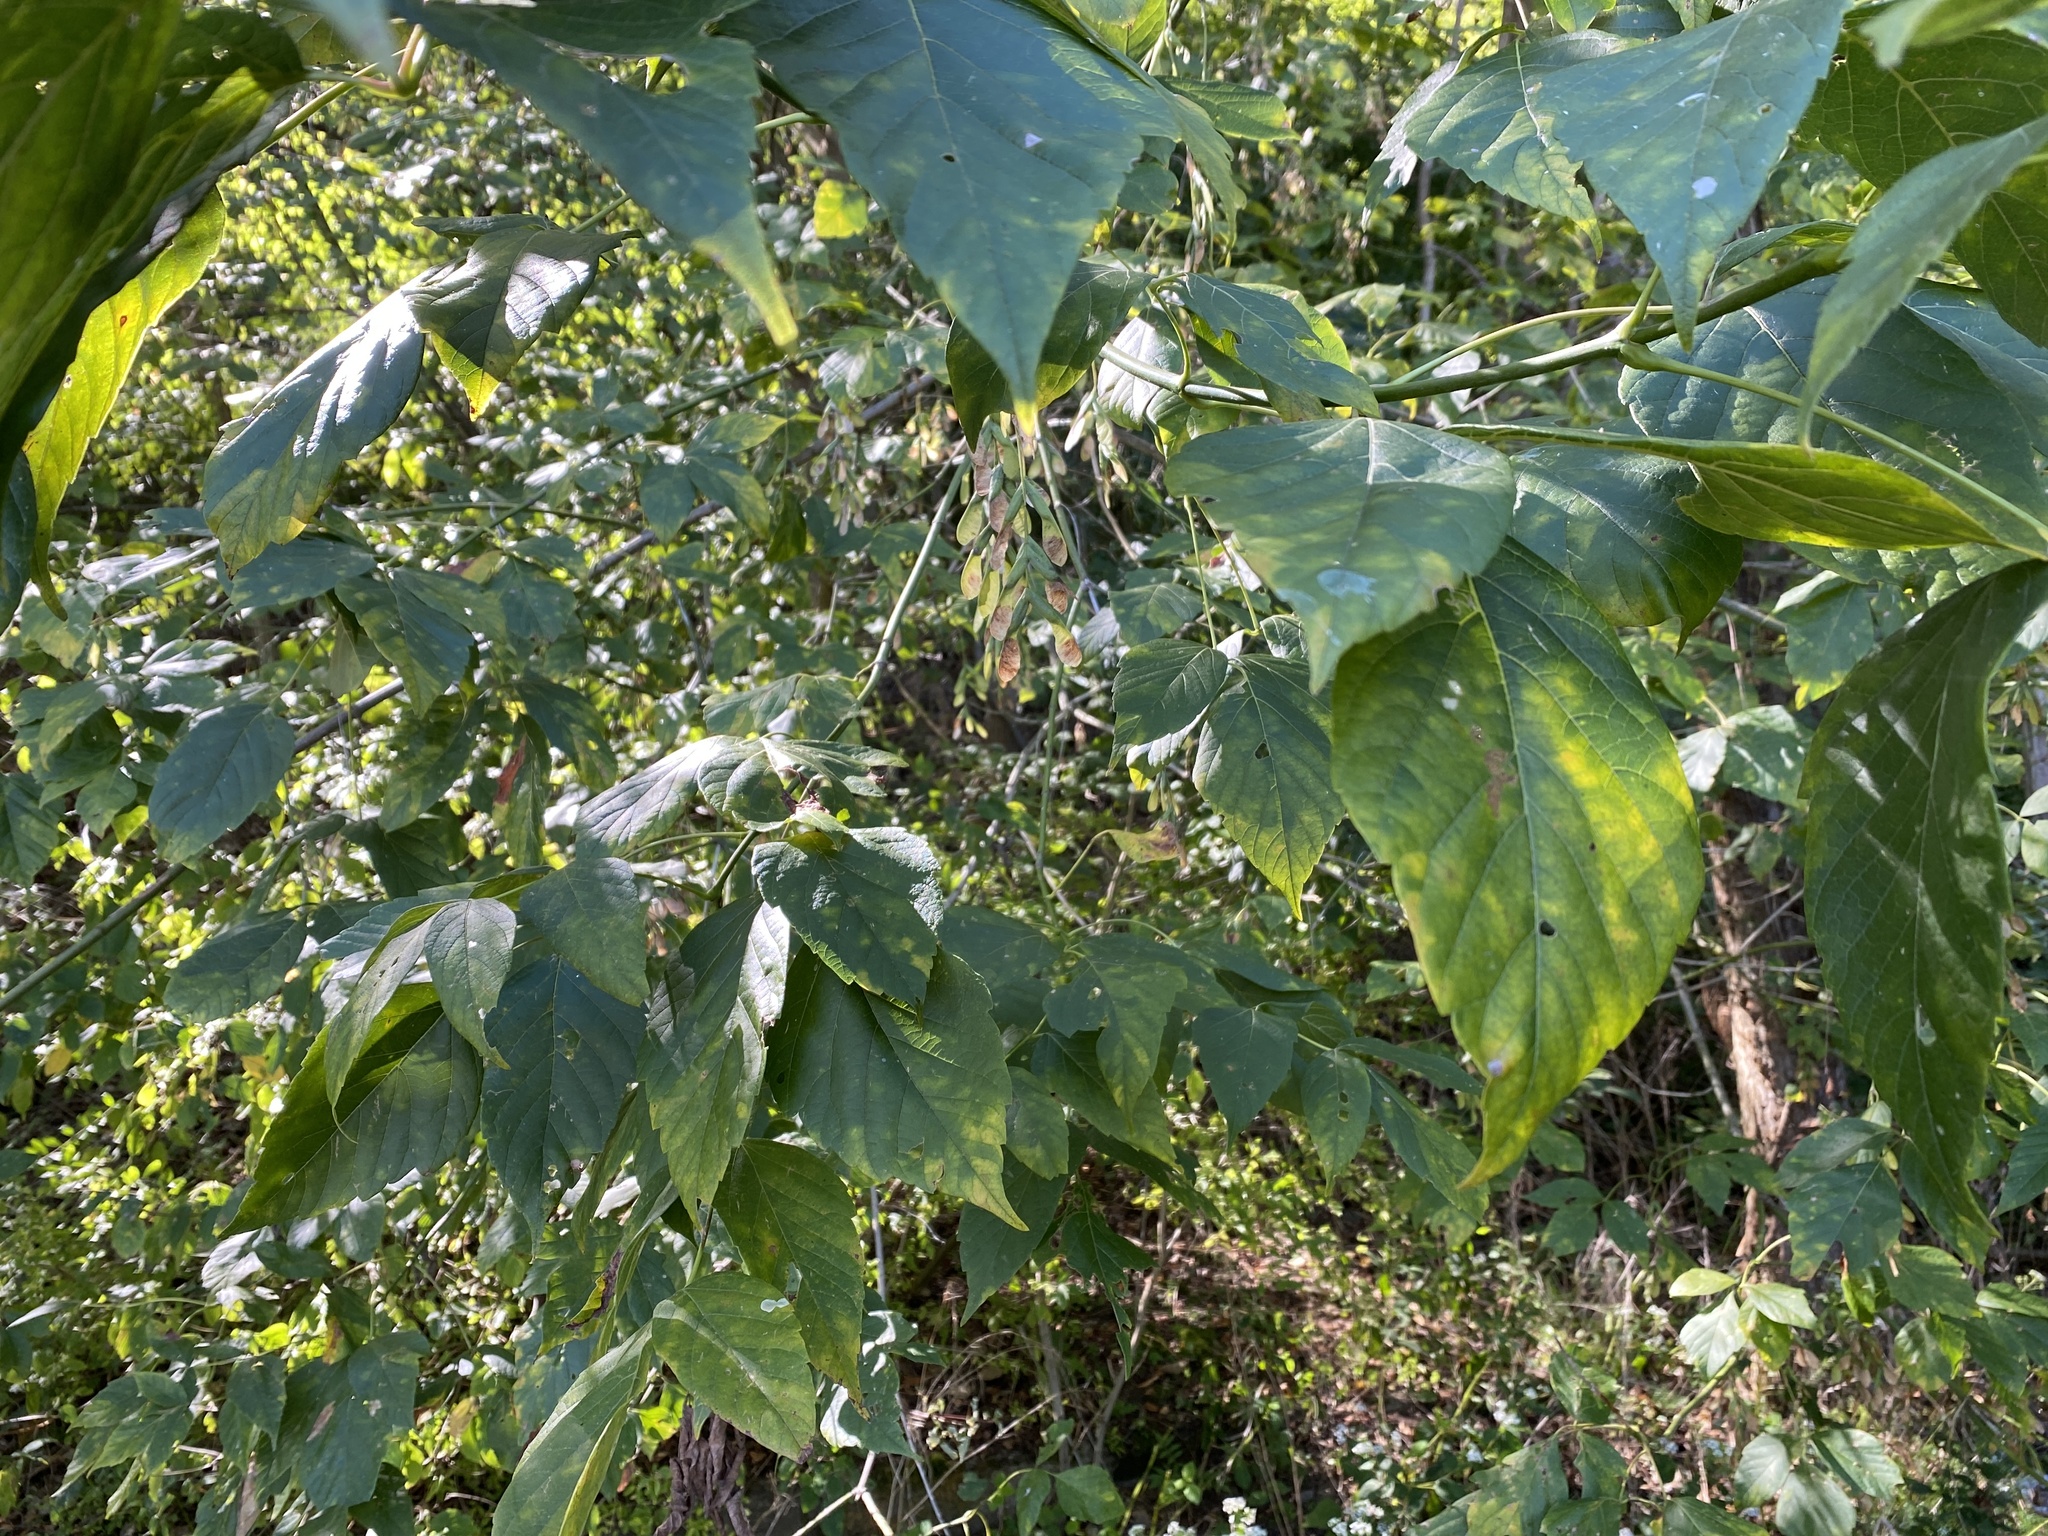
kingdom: Plantae
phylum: Tracheophyta
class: Magnoliopsida
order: Sapindales
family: Sapindaceae
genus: Acer
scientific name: Acer negundo
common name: Ashleaf maple
